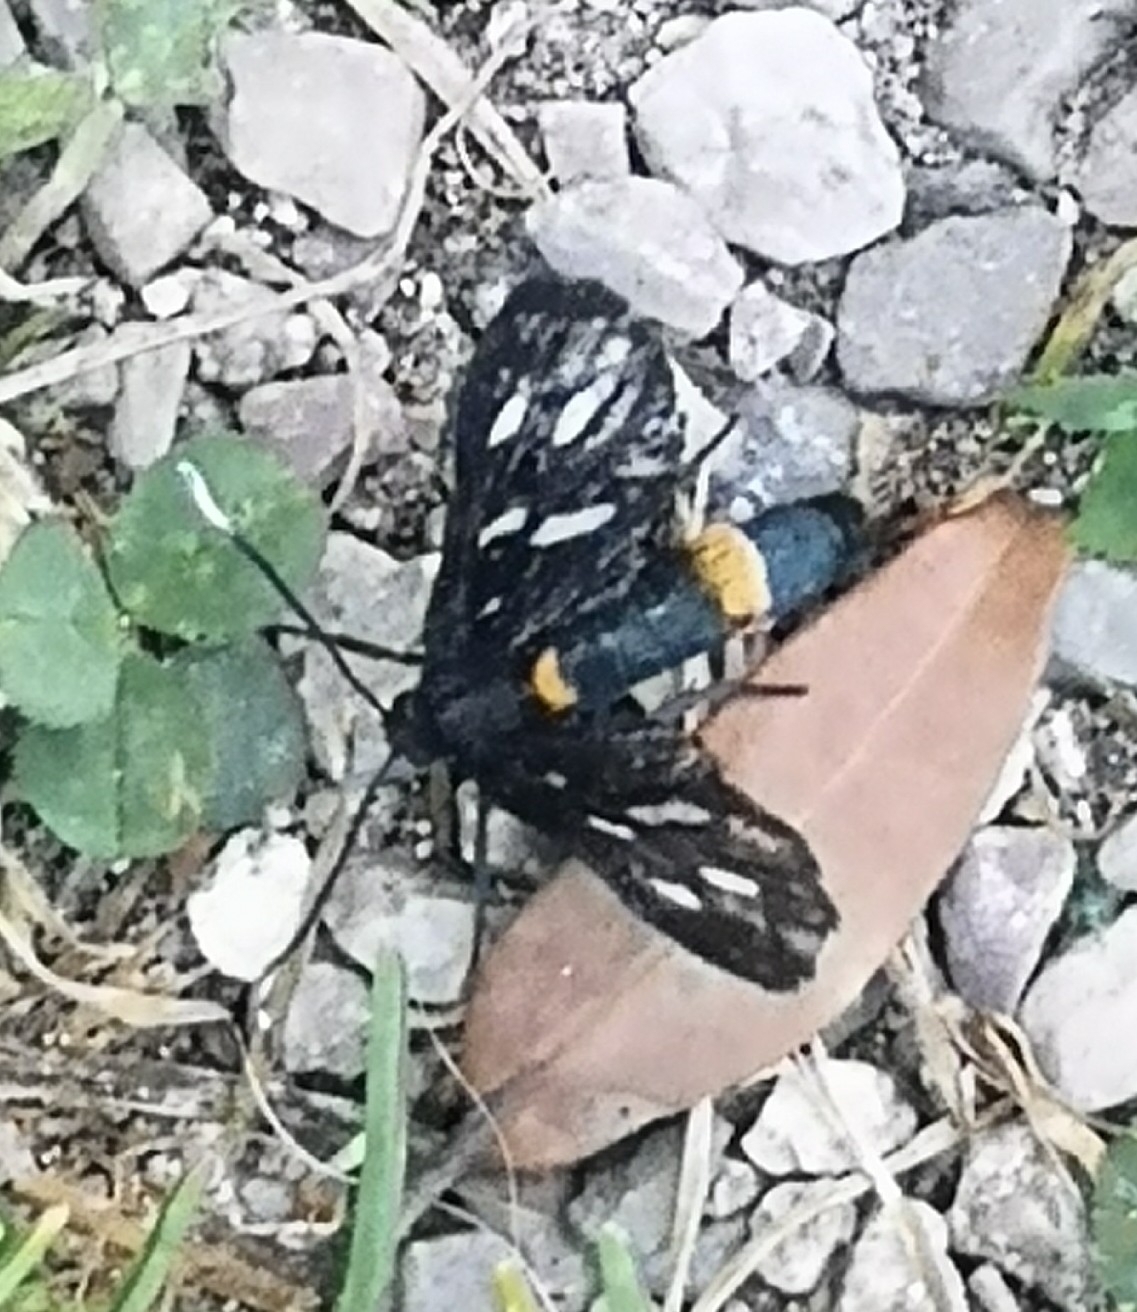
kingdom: Animalia
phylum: Arthropoda
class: Insecta
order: Lepidoptera
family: Erebidae
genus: Amata
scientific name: Amata phegea
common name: Nine-spotted
